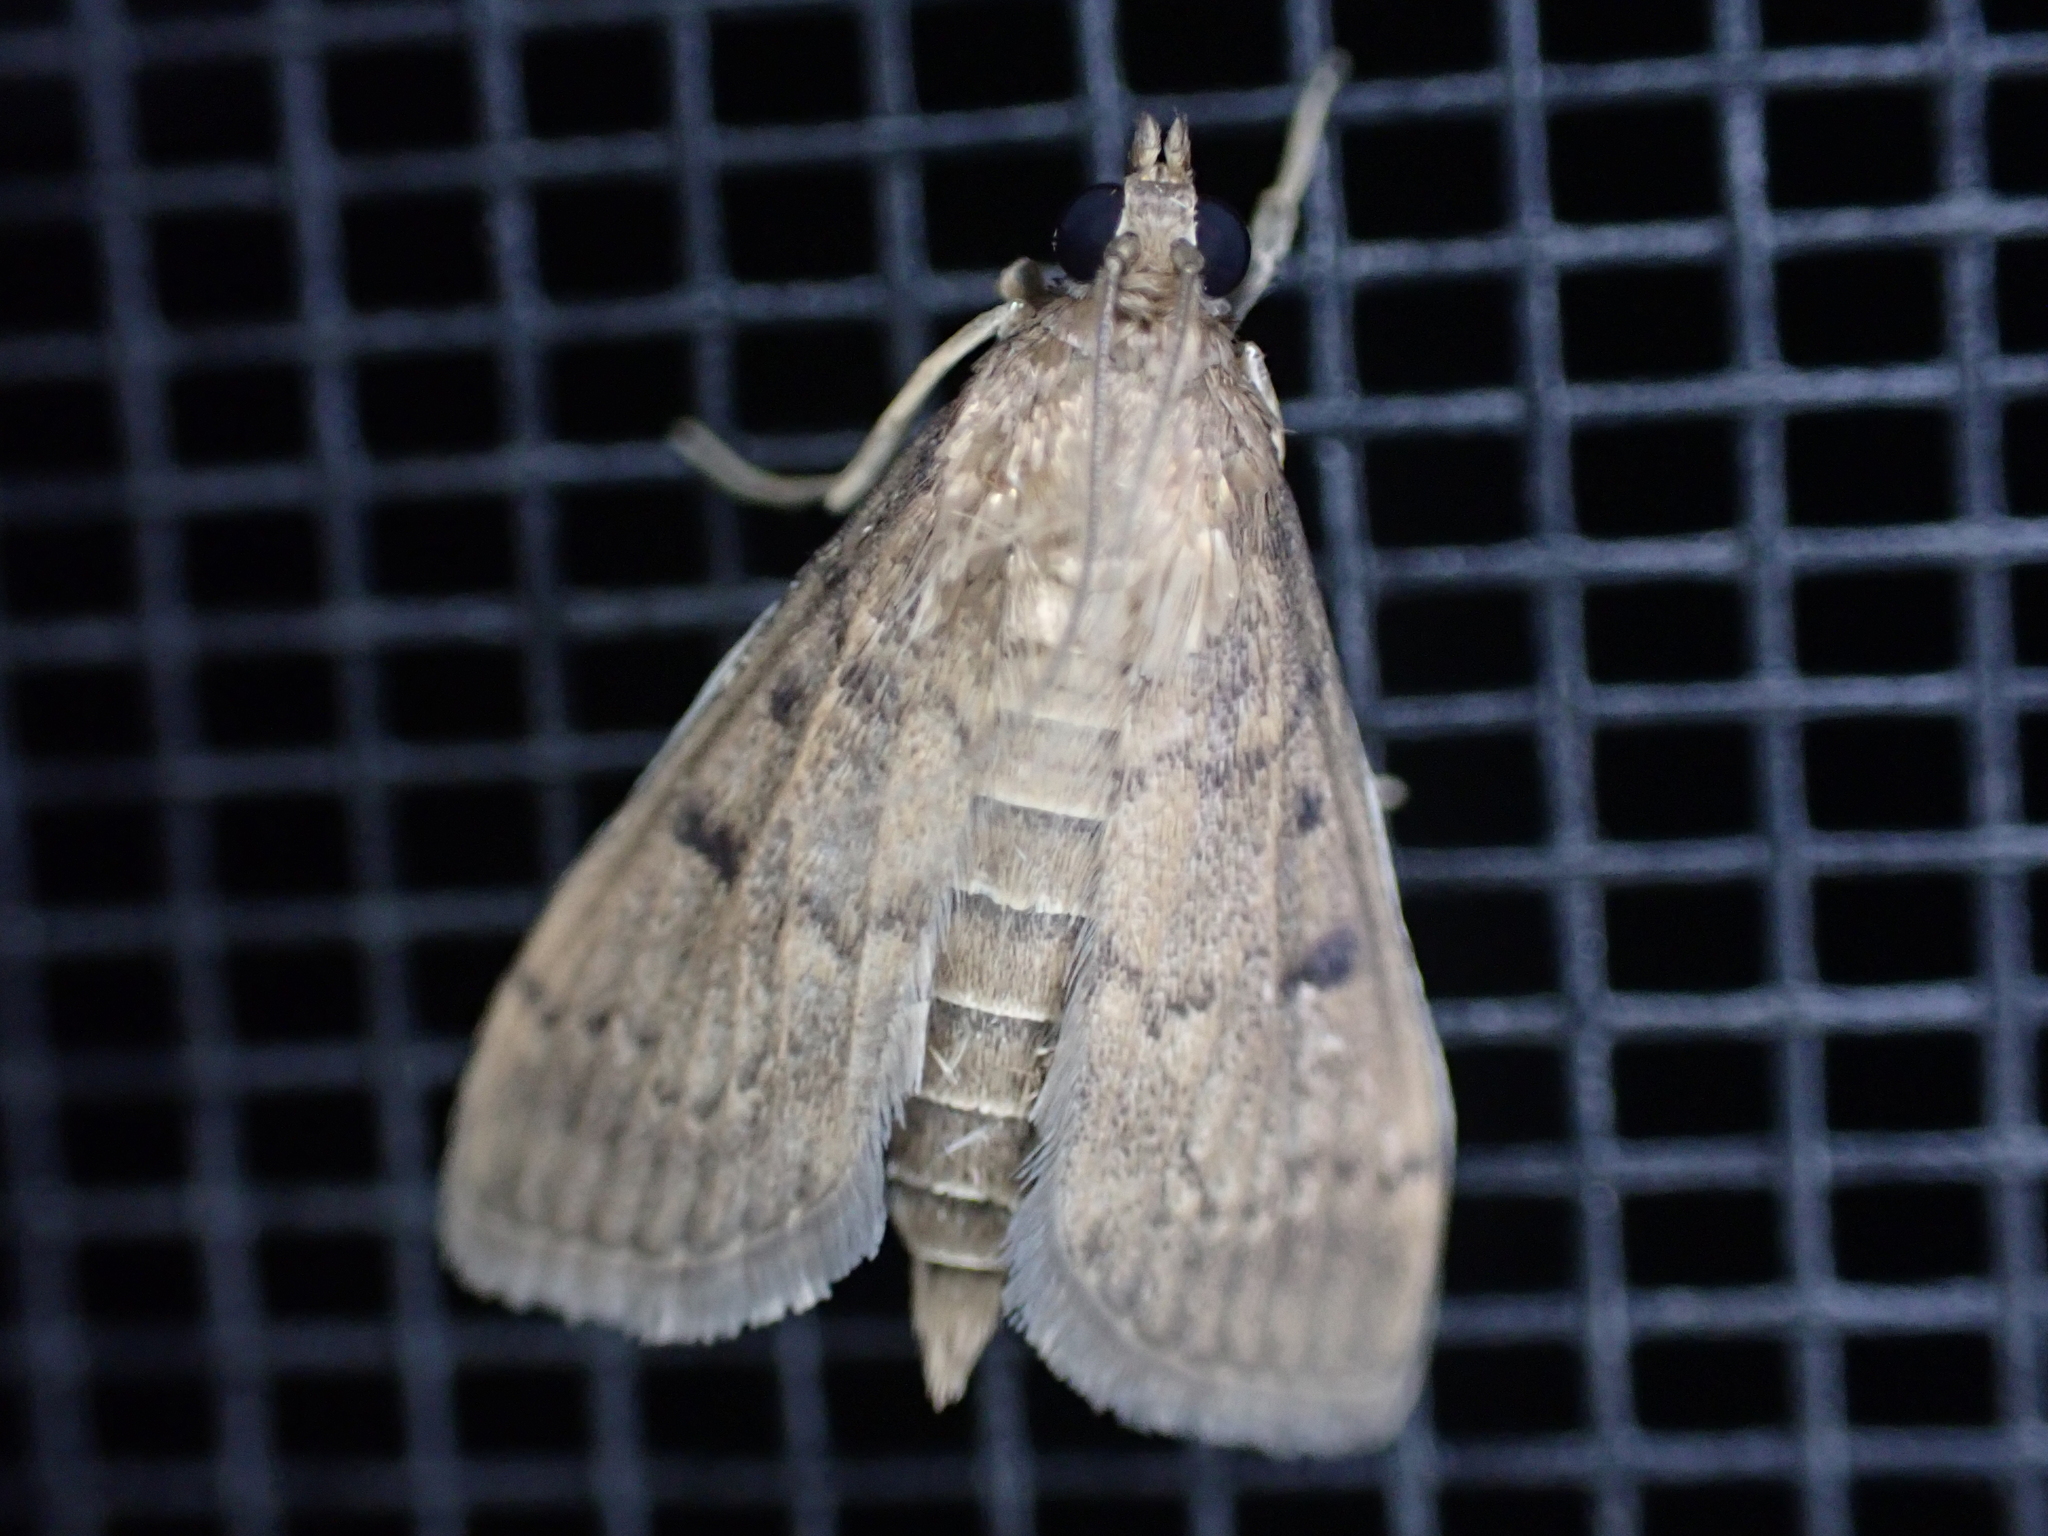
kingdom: Animalia
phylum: Arthropoda
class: Insecta
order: Lepidoptera
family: Crambidae
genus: Herpetogramma
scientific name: Herpetogramma phaeopteralis
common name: Dusky herpetogramma moth
